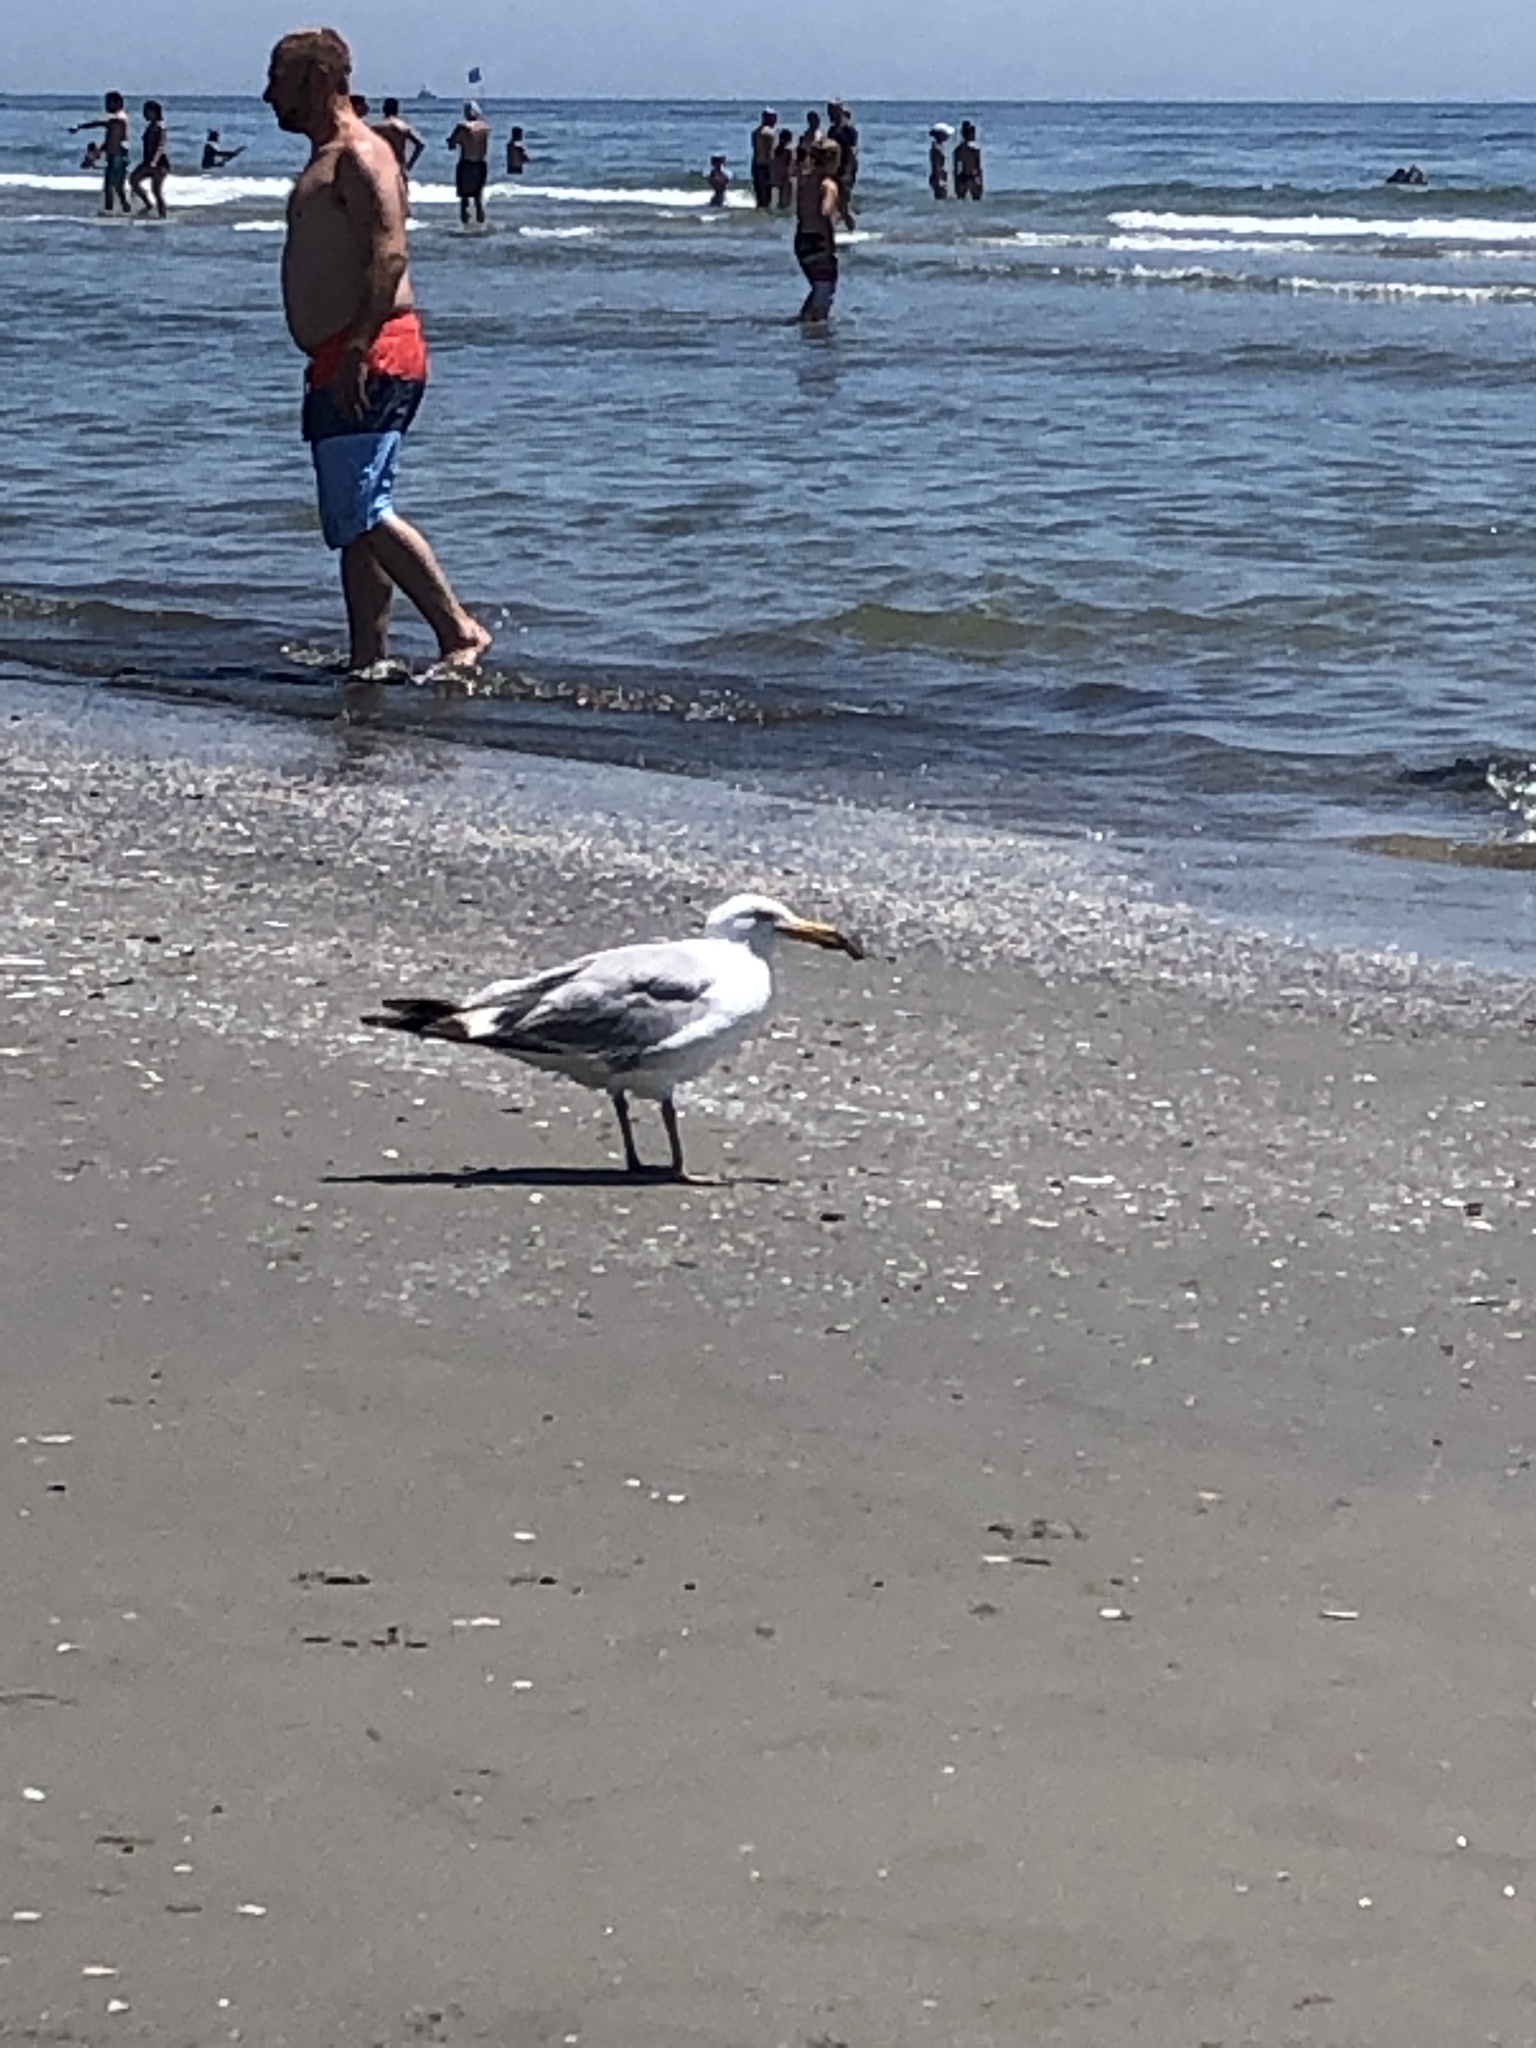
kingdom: Animalia
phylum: Chordata
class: Aves
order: Charadriiformes
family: Laridae
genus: Larus
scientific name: Larus argentatus
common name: Herring gull
